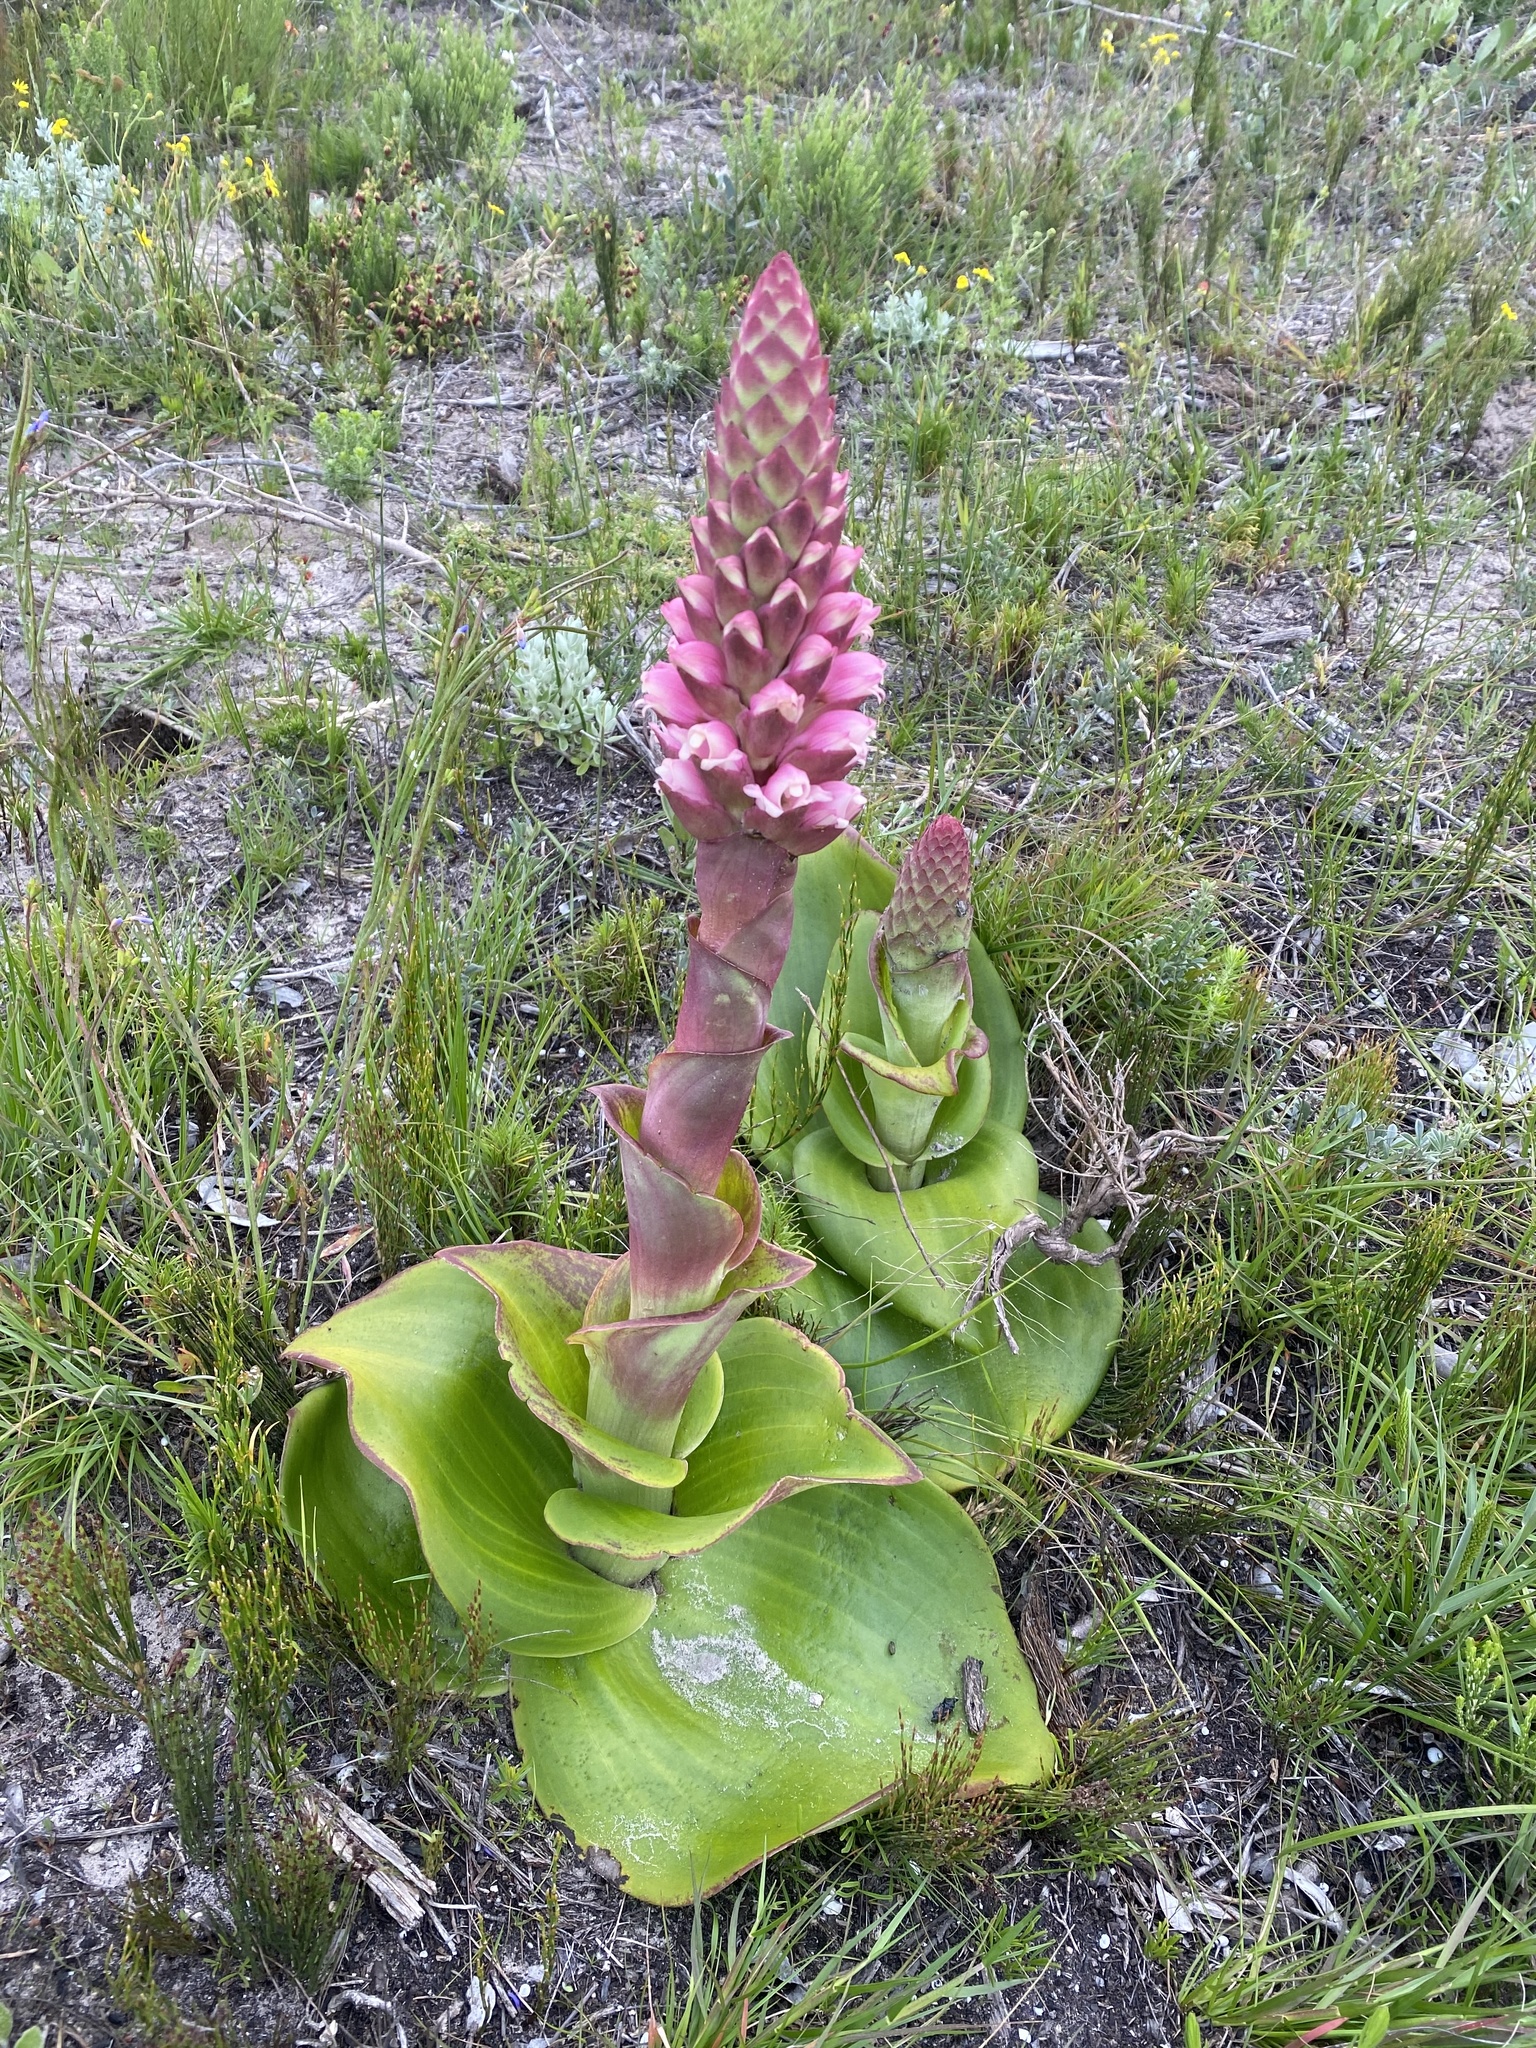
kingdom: Plantae
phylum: Tracheophyta
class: Liliopsida
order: Asparagales
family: Orchidaceae
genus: Satyrium
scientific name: Satyrium carneum
